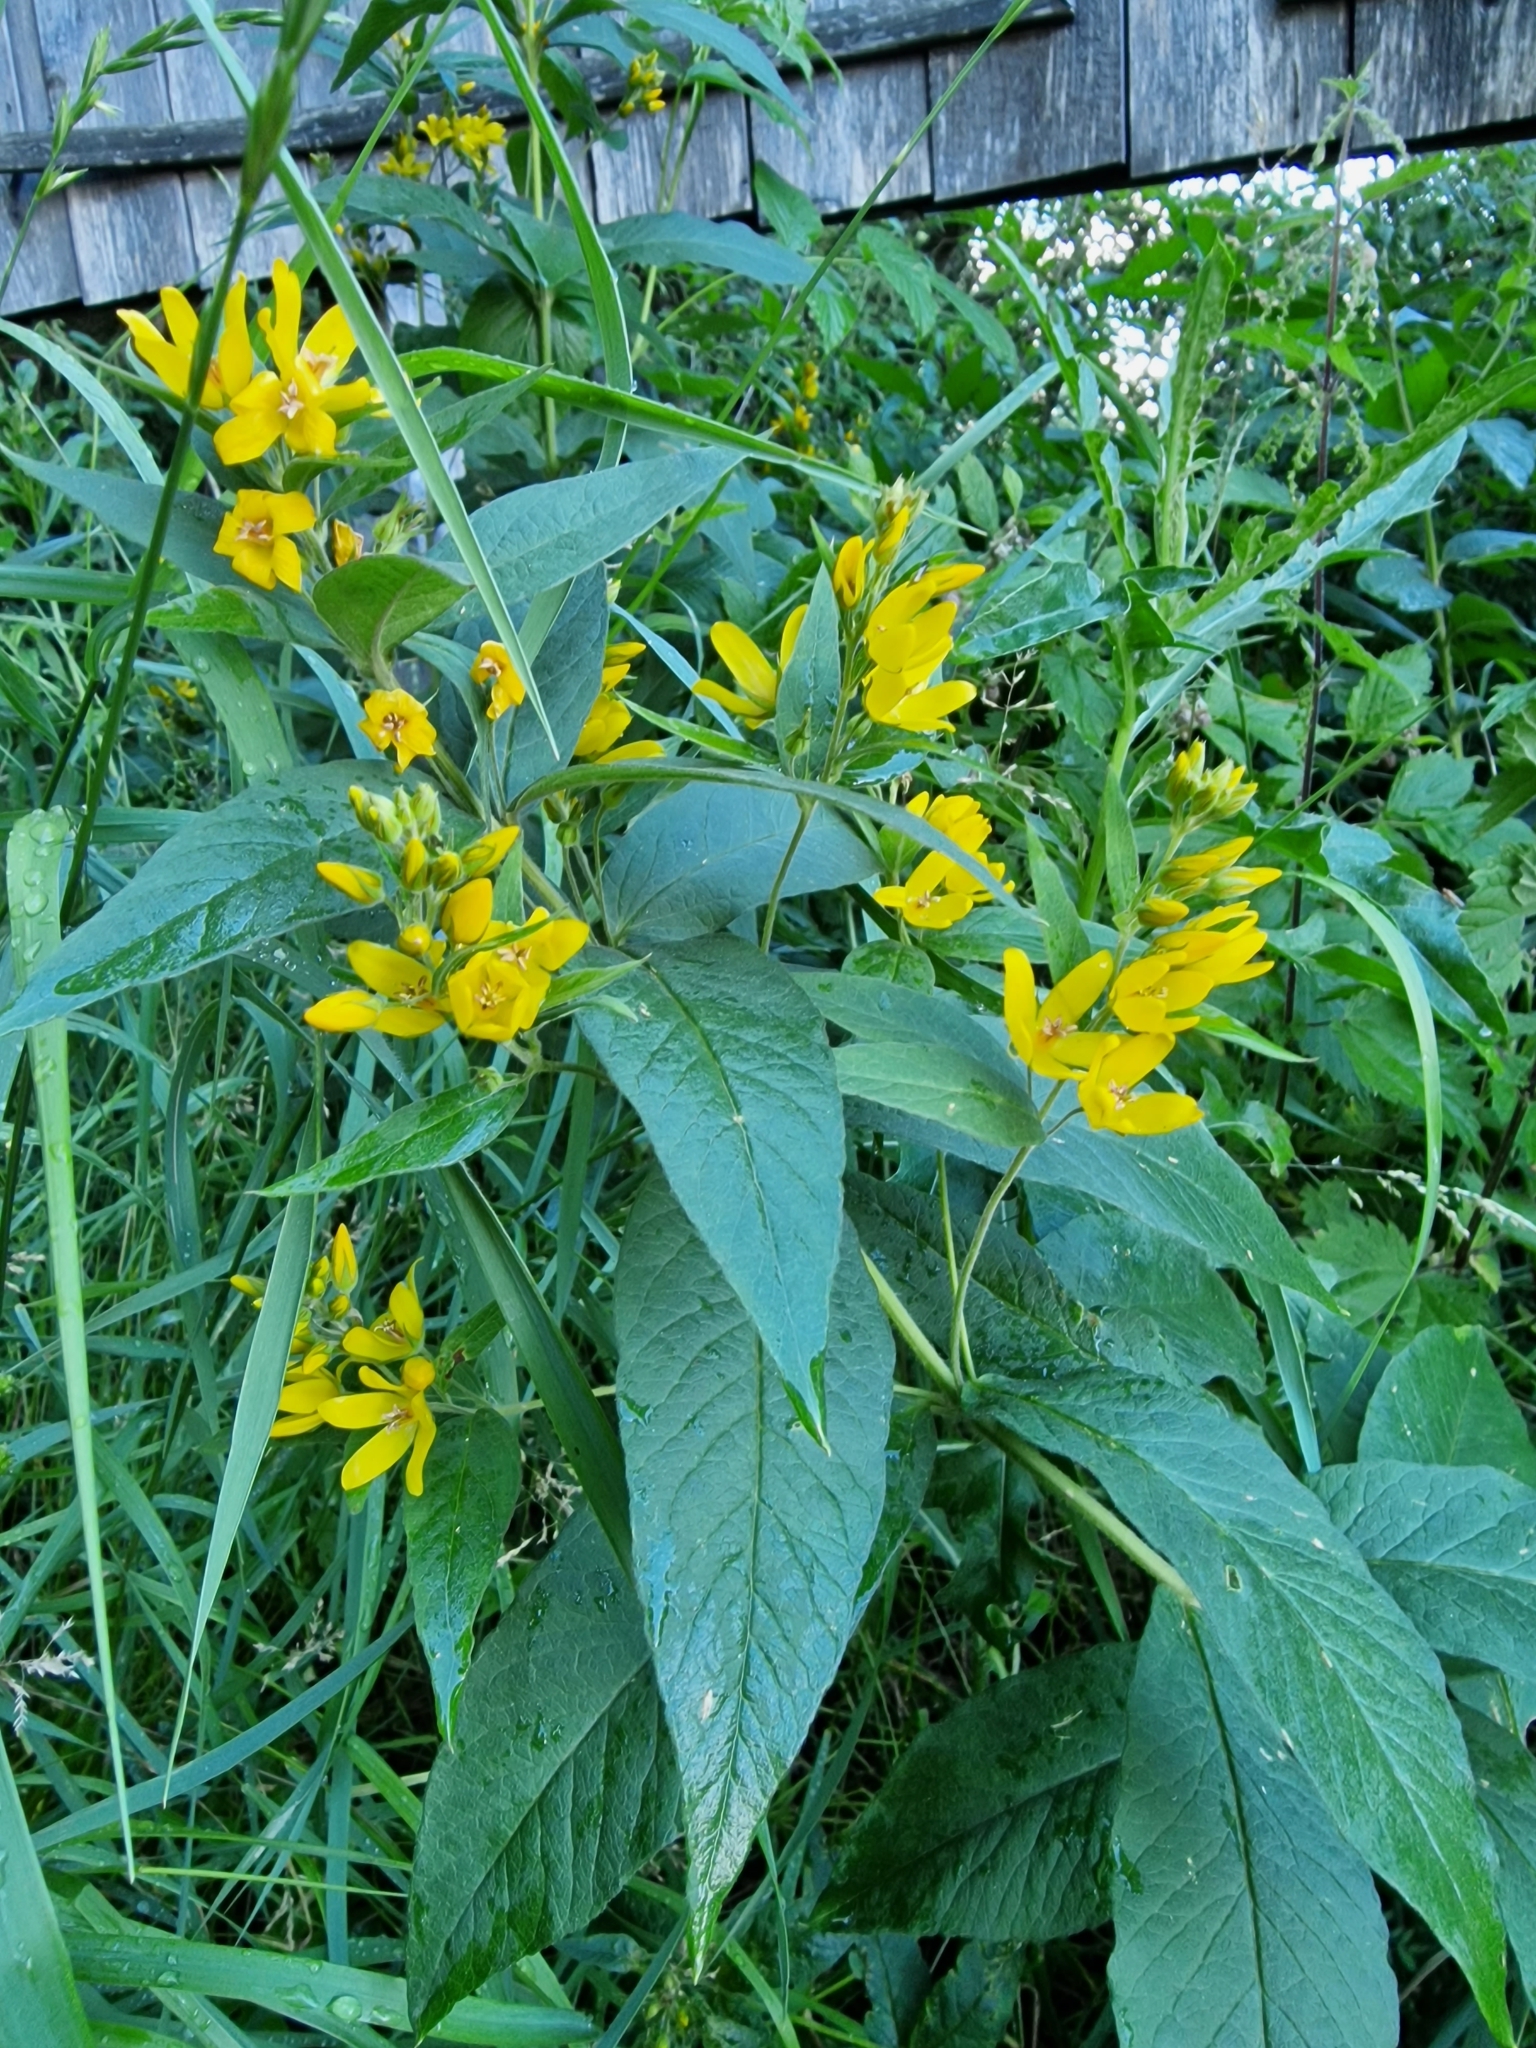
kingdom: Plantae
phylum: Tracheophyta
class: Magnoliopsida
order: Ericales
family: Primulaceae
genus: Lysimachia
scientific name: Lysimachia vulgaris
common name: Yellow loosestrife
